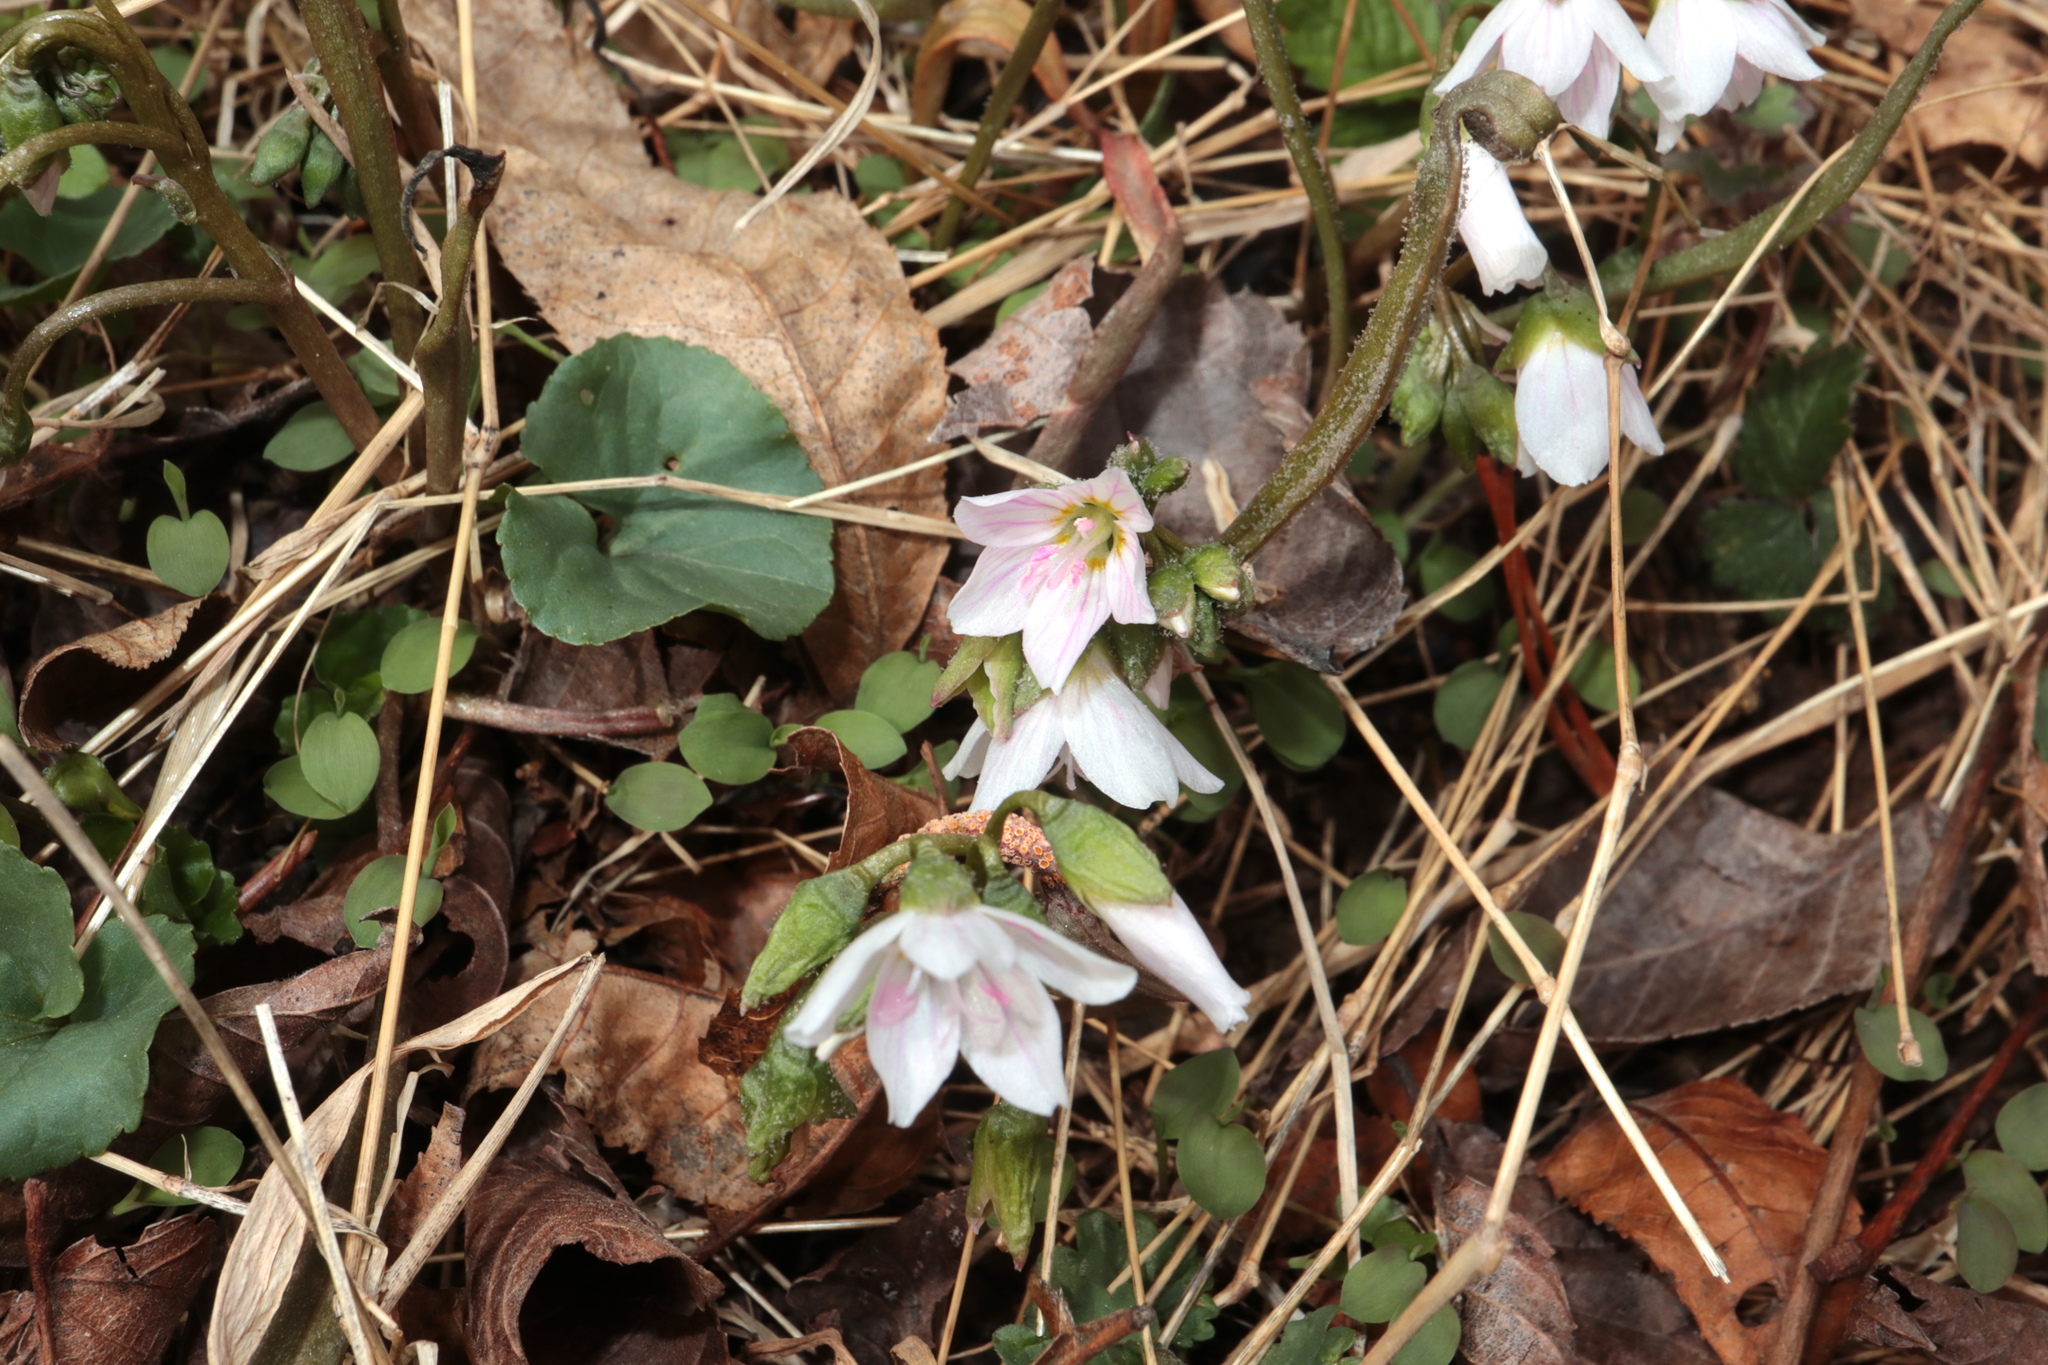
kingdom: Plantae
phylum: Tracheophyta
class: Magnoliopsida
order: Caryophyllales
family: Montiaceae
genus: Claytonia
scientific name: Claytonia virginica
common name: Virginia springbeauty
